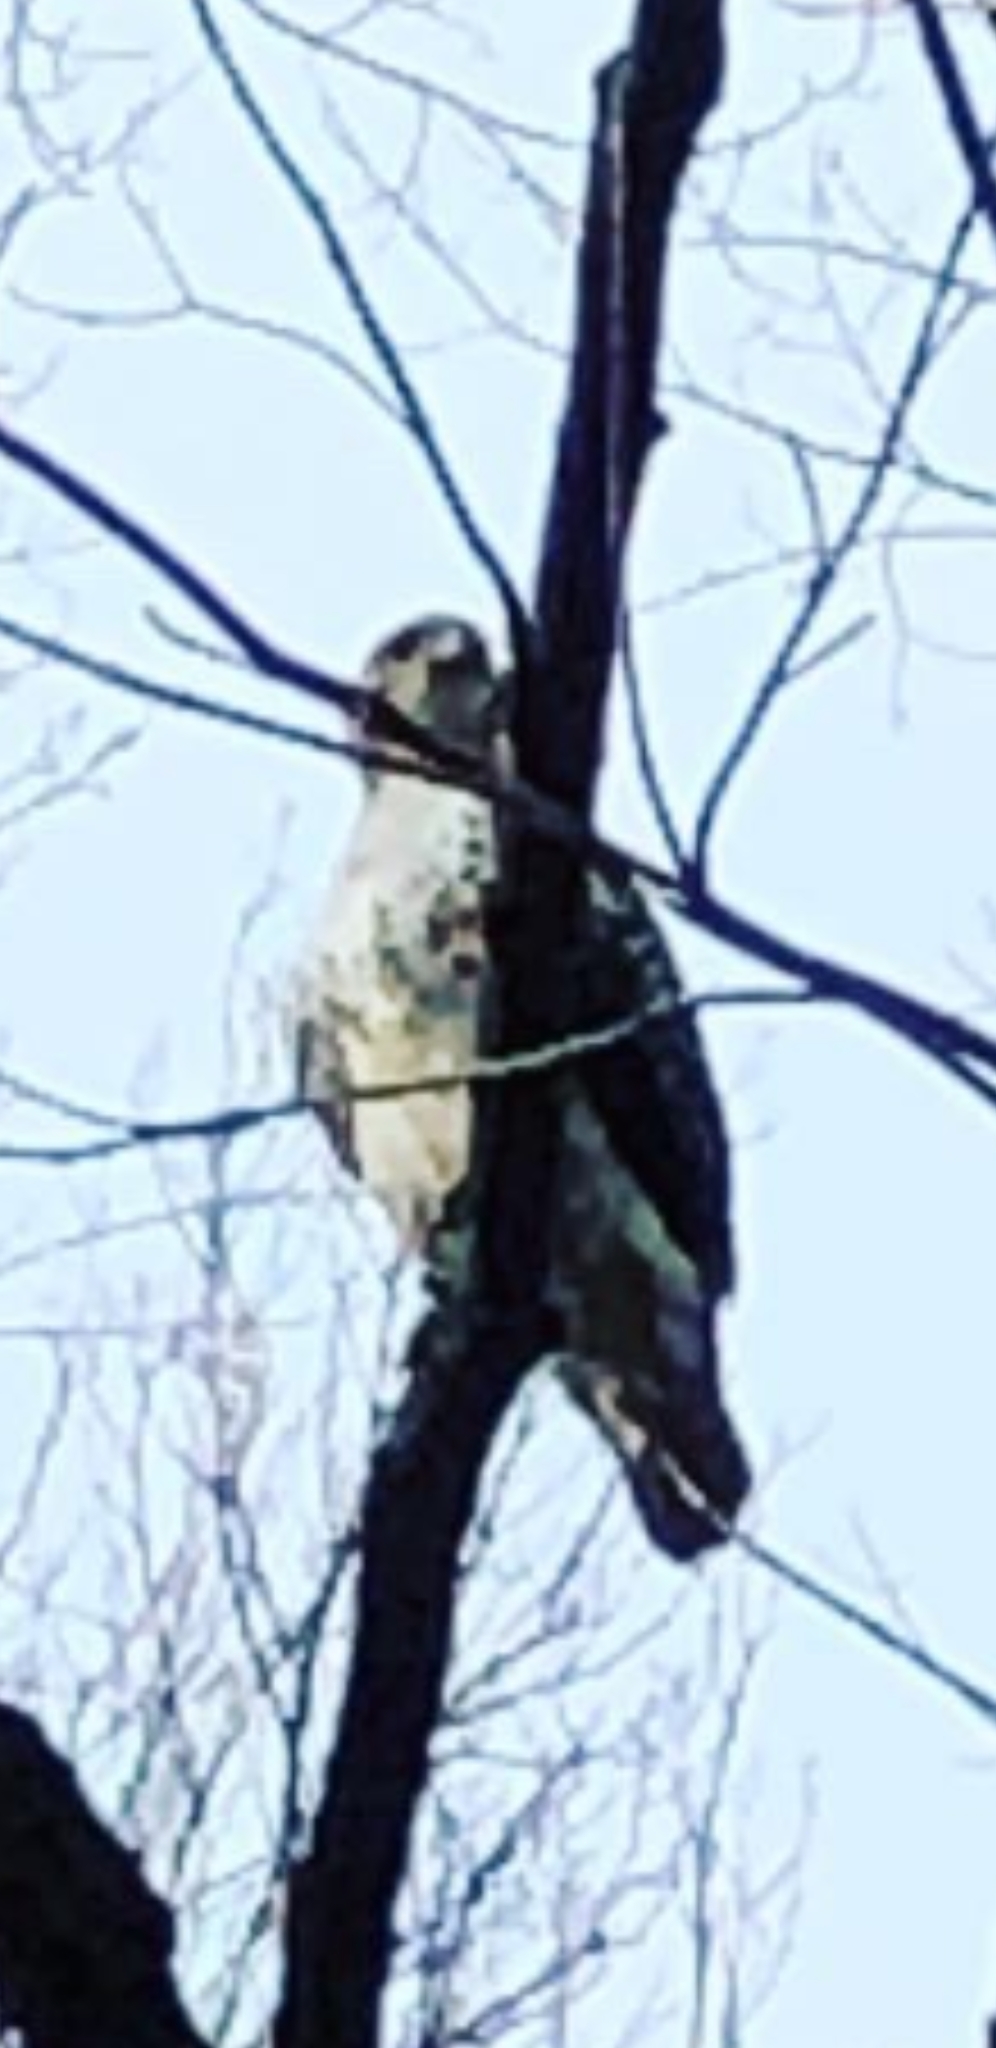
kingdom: Animalia
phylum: Chordata
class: Aves
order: Accipitriformes
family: Accipitridae
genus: Buteo
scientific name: Buteo jamaicensis
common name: Red-tailed hawk
